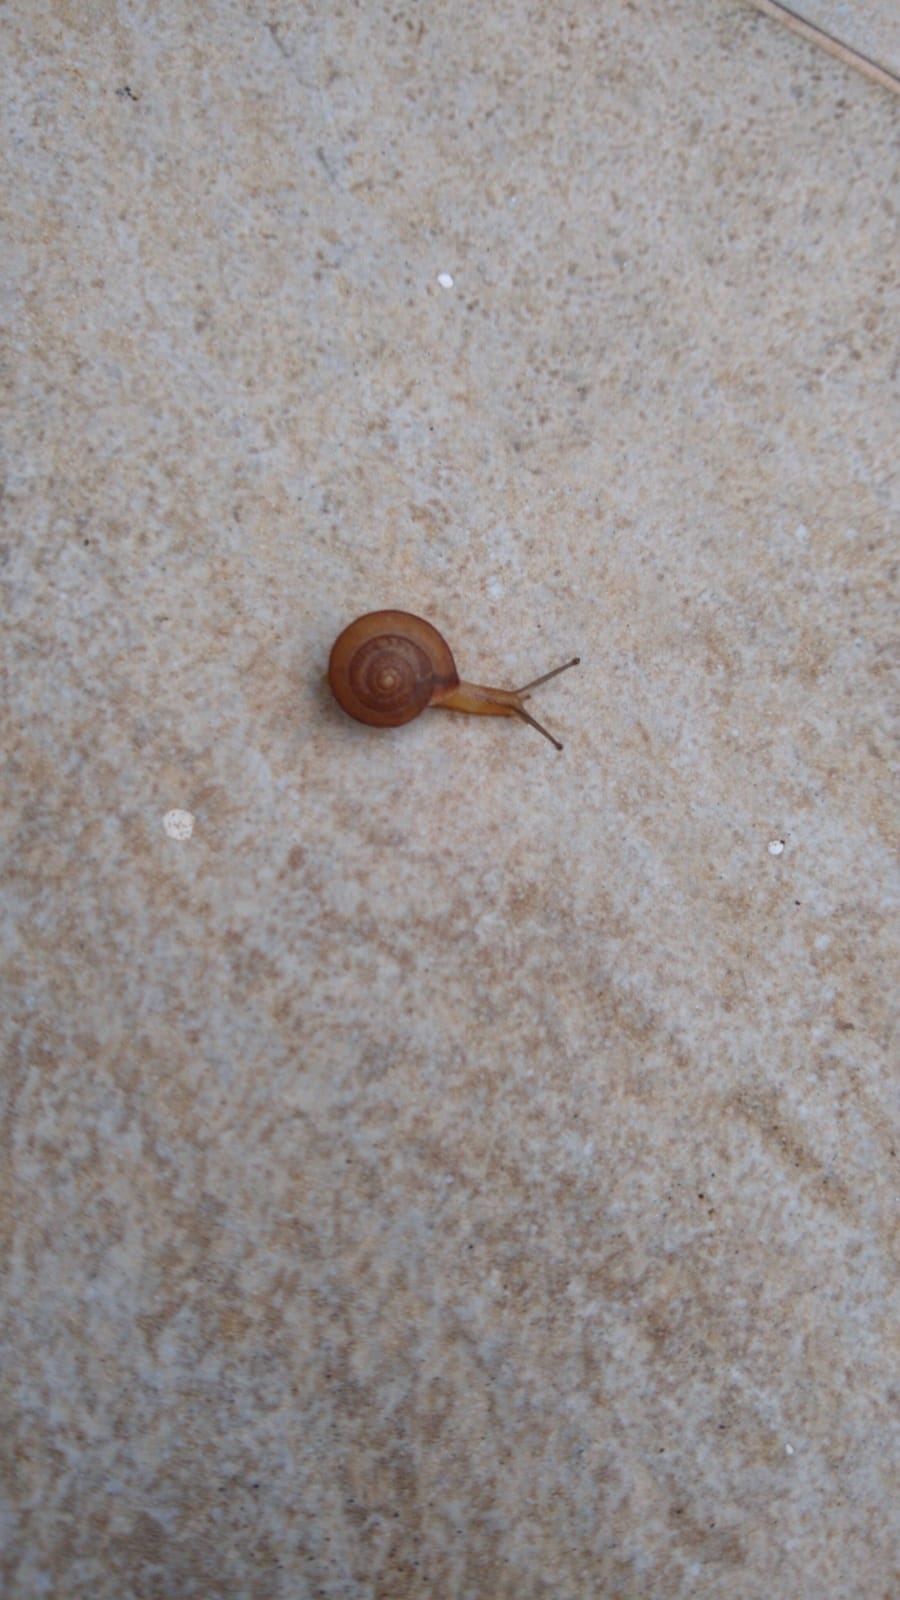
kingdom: Animalia
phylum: Mollusca
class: Gastropoda
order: Stylommatophora
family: Camaenidae
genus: Bradybaena
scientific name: Bradybaena similaris
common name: Asian trampsnail
